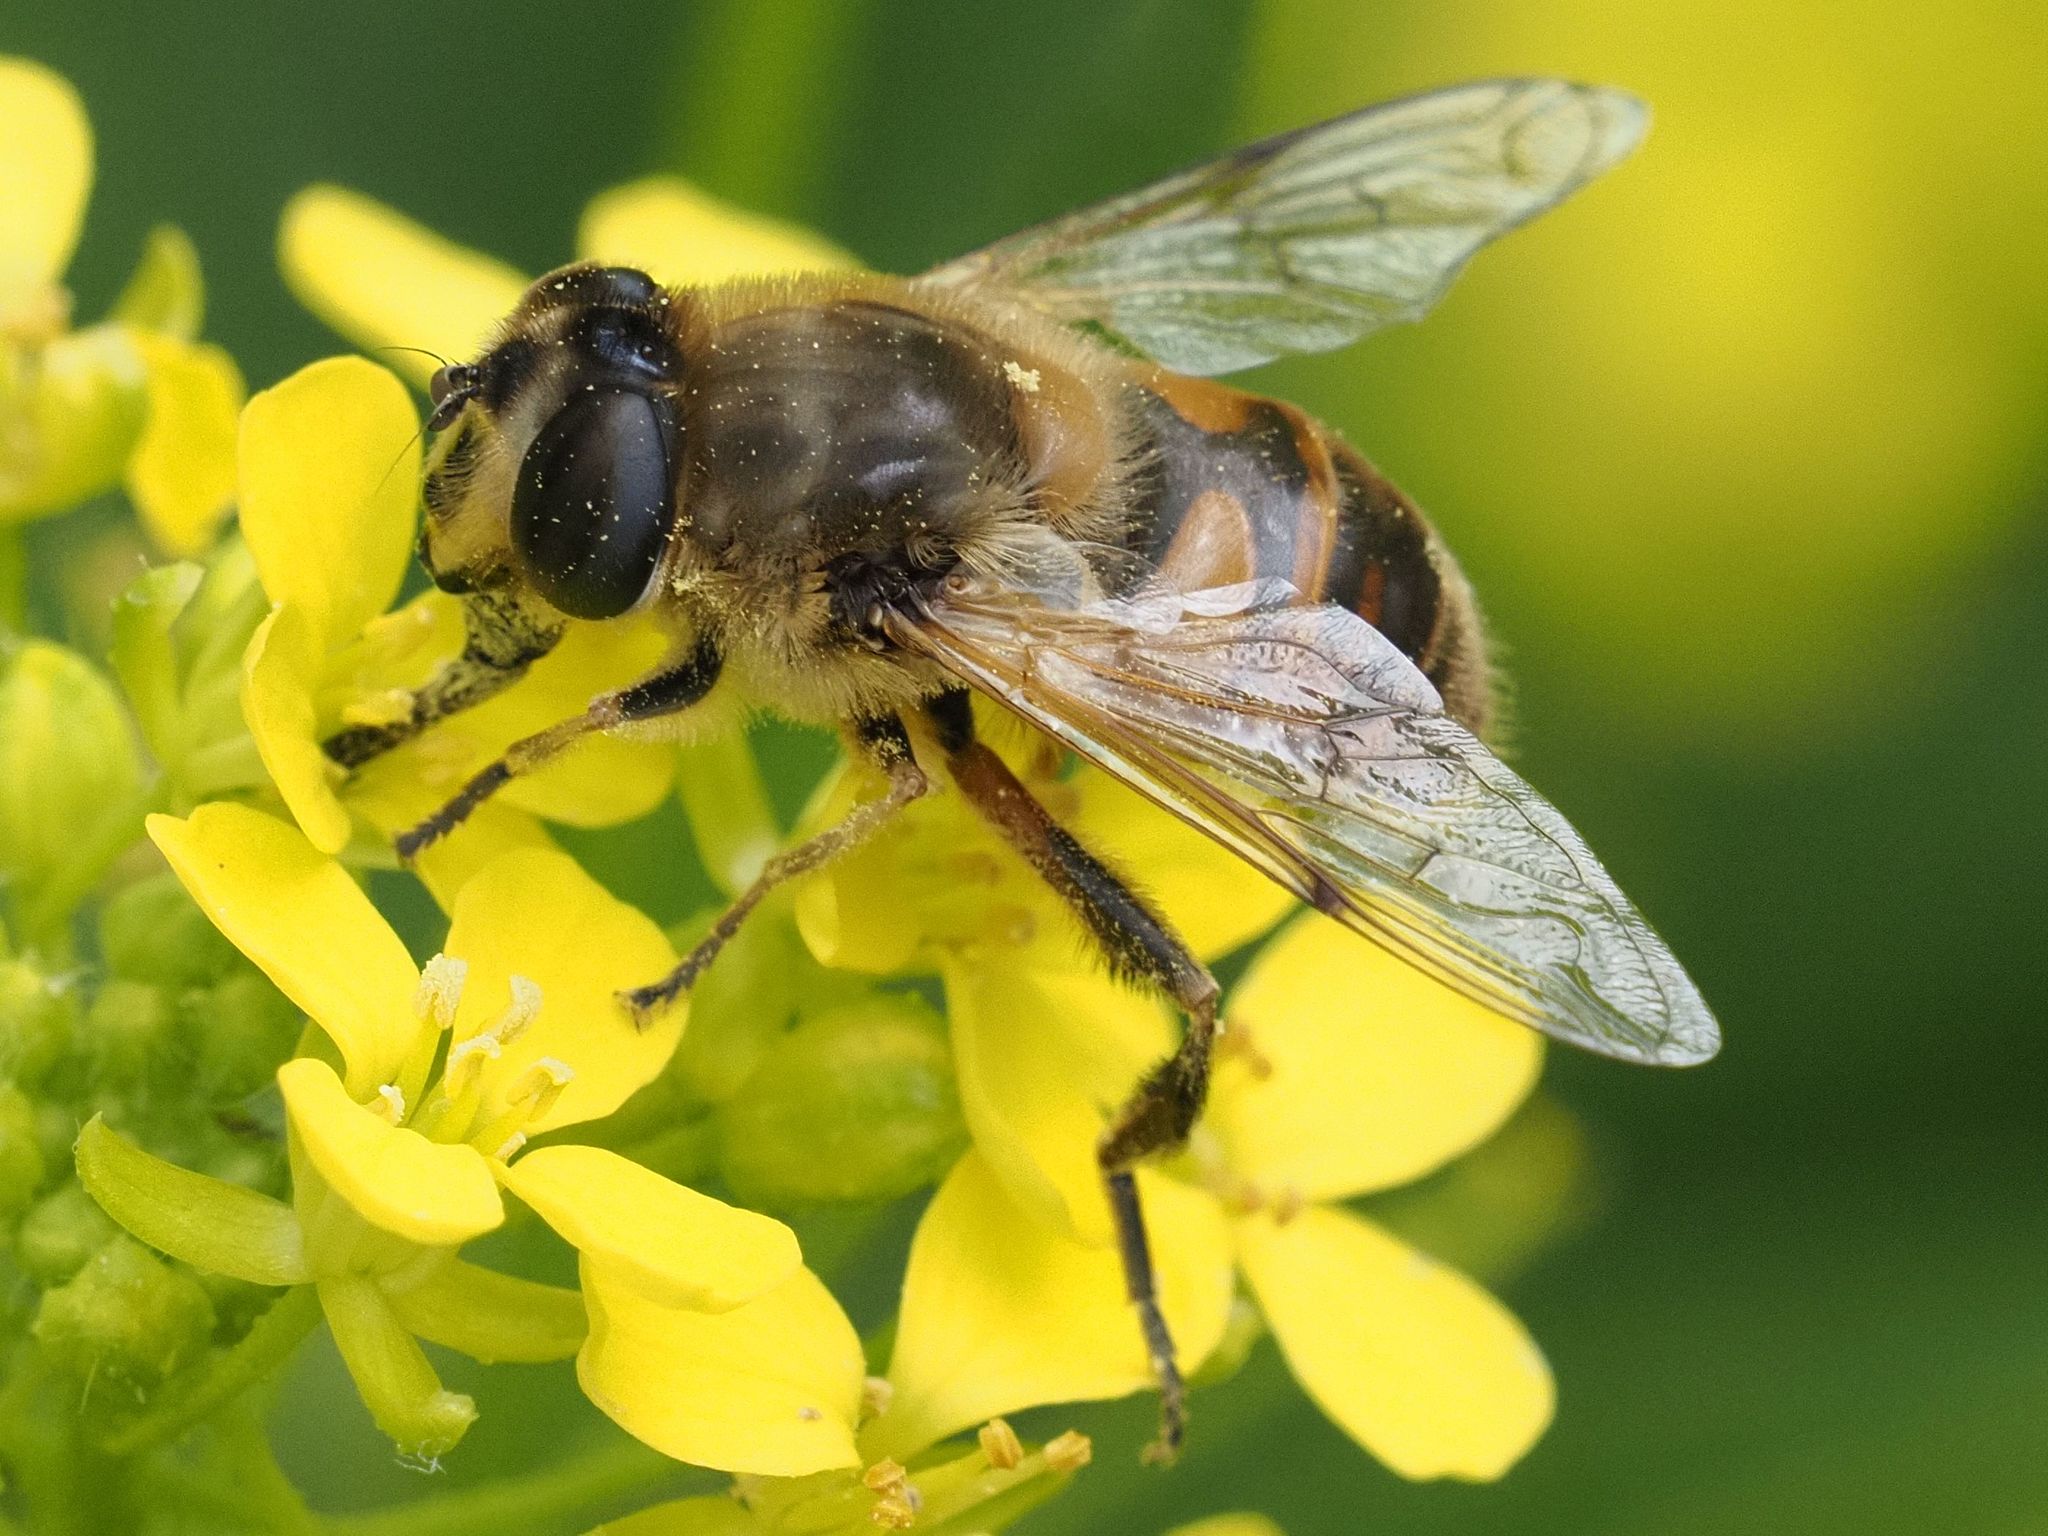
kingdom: Animalia
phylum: Arthropoda
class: Insecta
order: Diptera
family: Syrphidae
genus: Eristalis
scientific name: Eristalis tenax
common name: Drone fly
